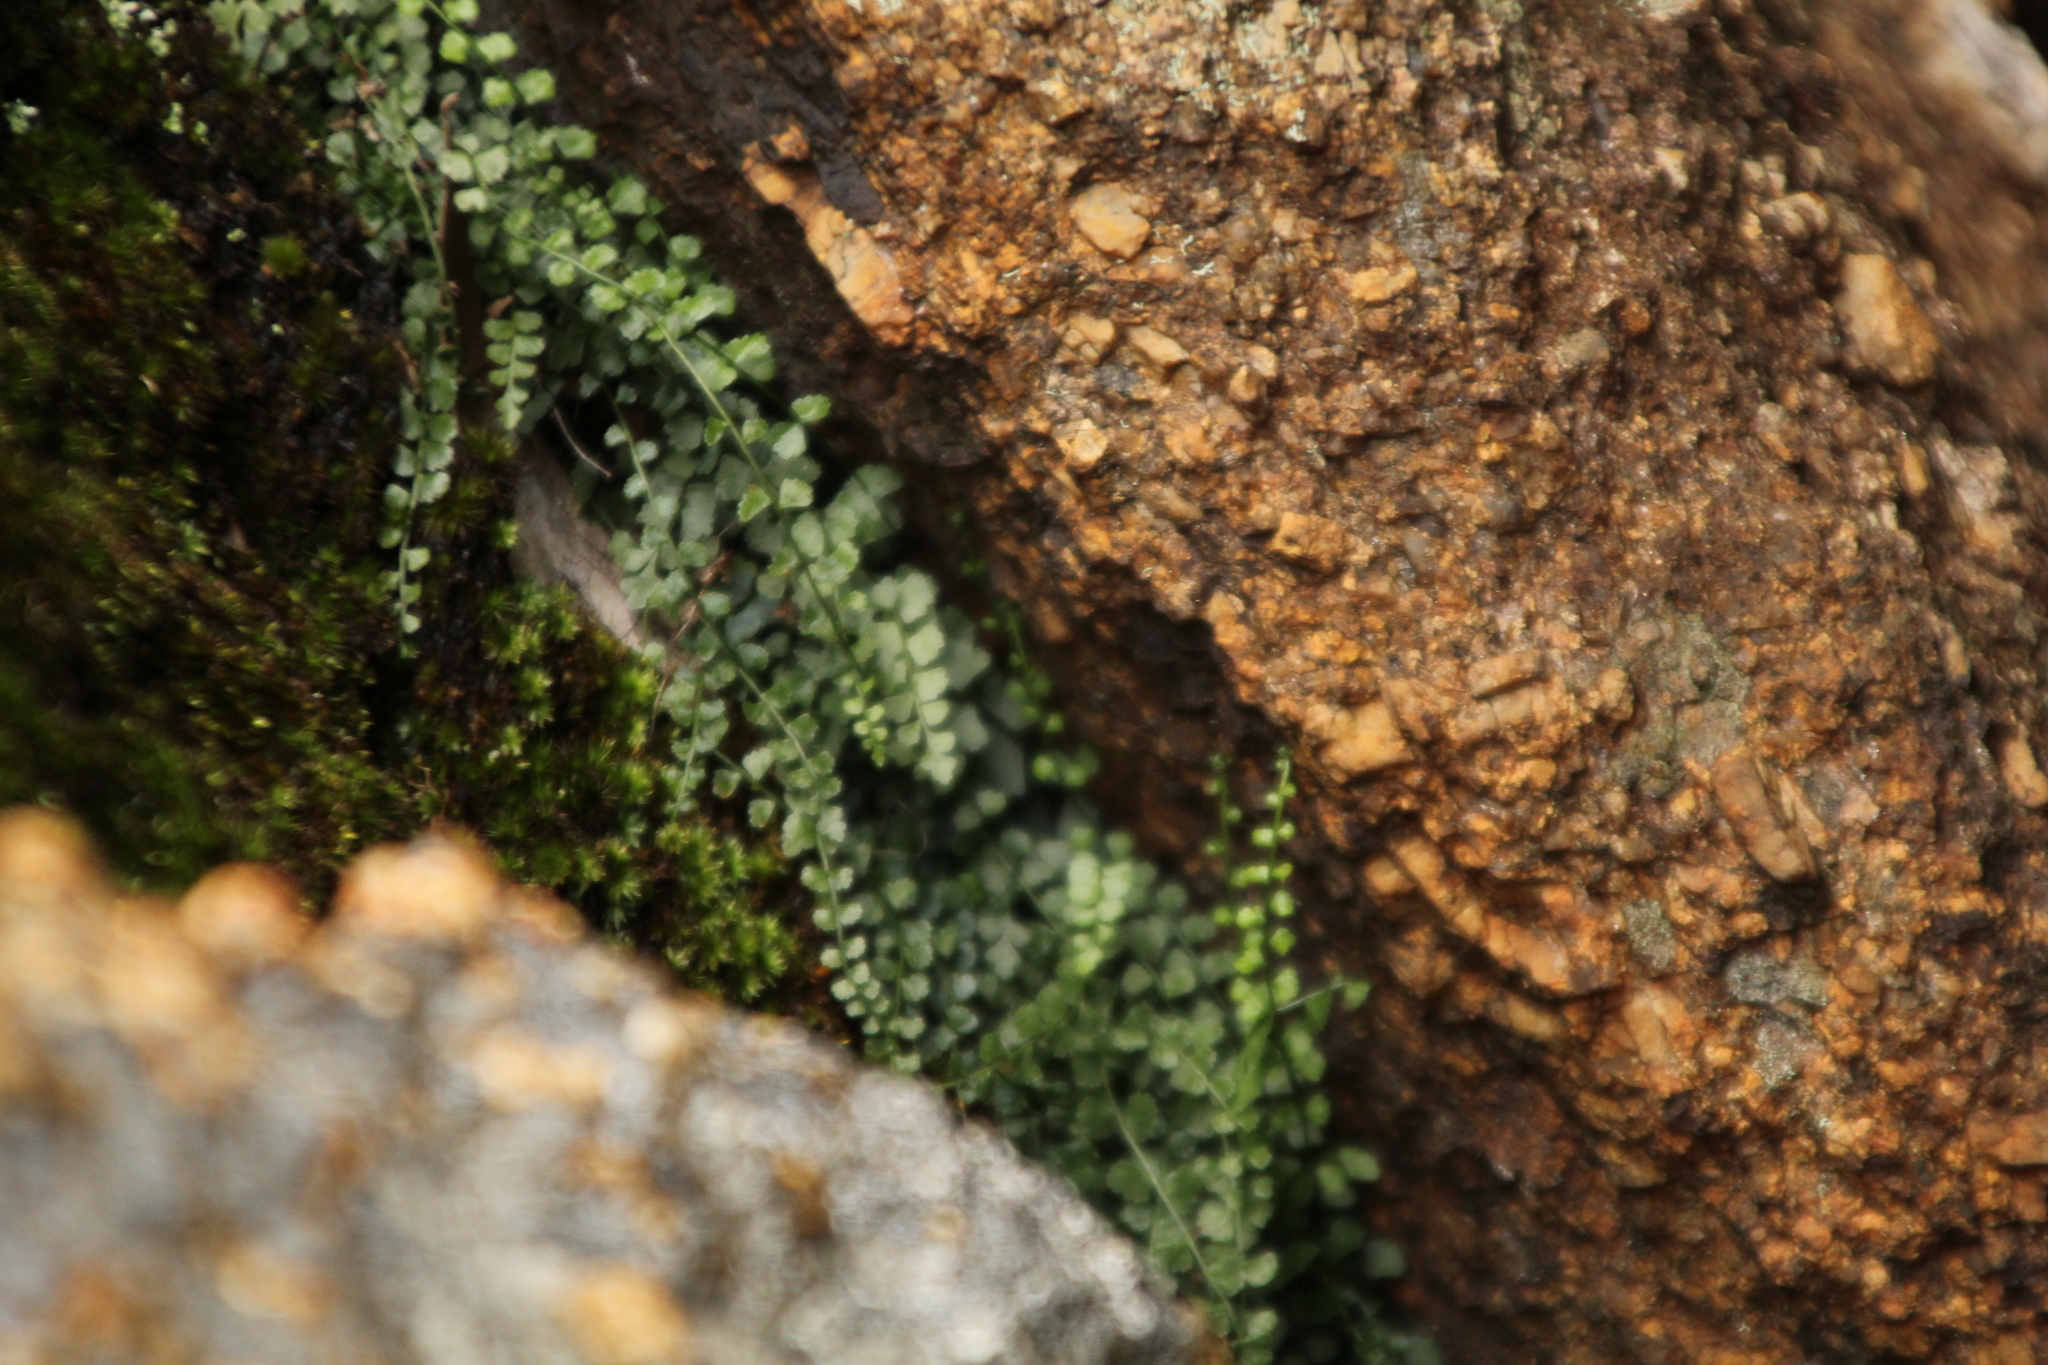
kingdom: Plantae
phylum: Tracheophyta
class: Polypodiopsida
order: Polypodiales
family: Aspleniaceae
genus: Asplenium
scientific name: Asplenium flabellifolium
